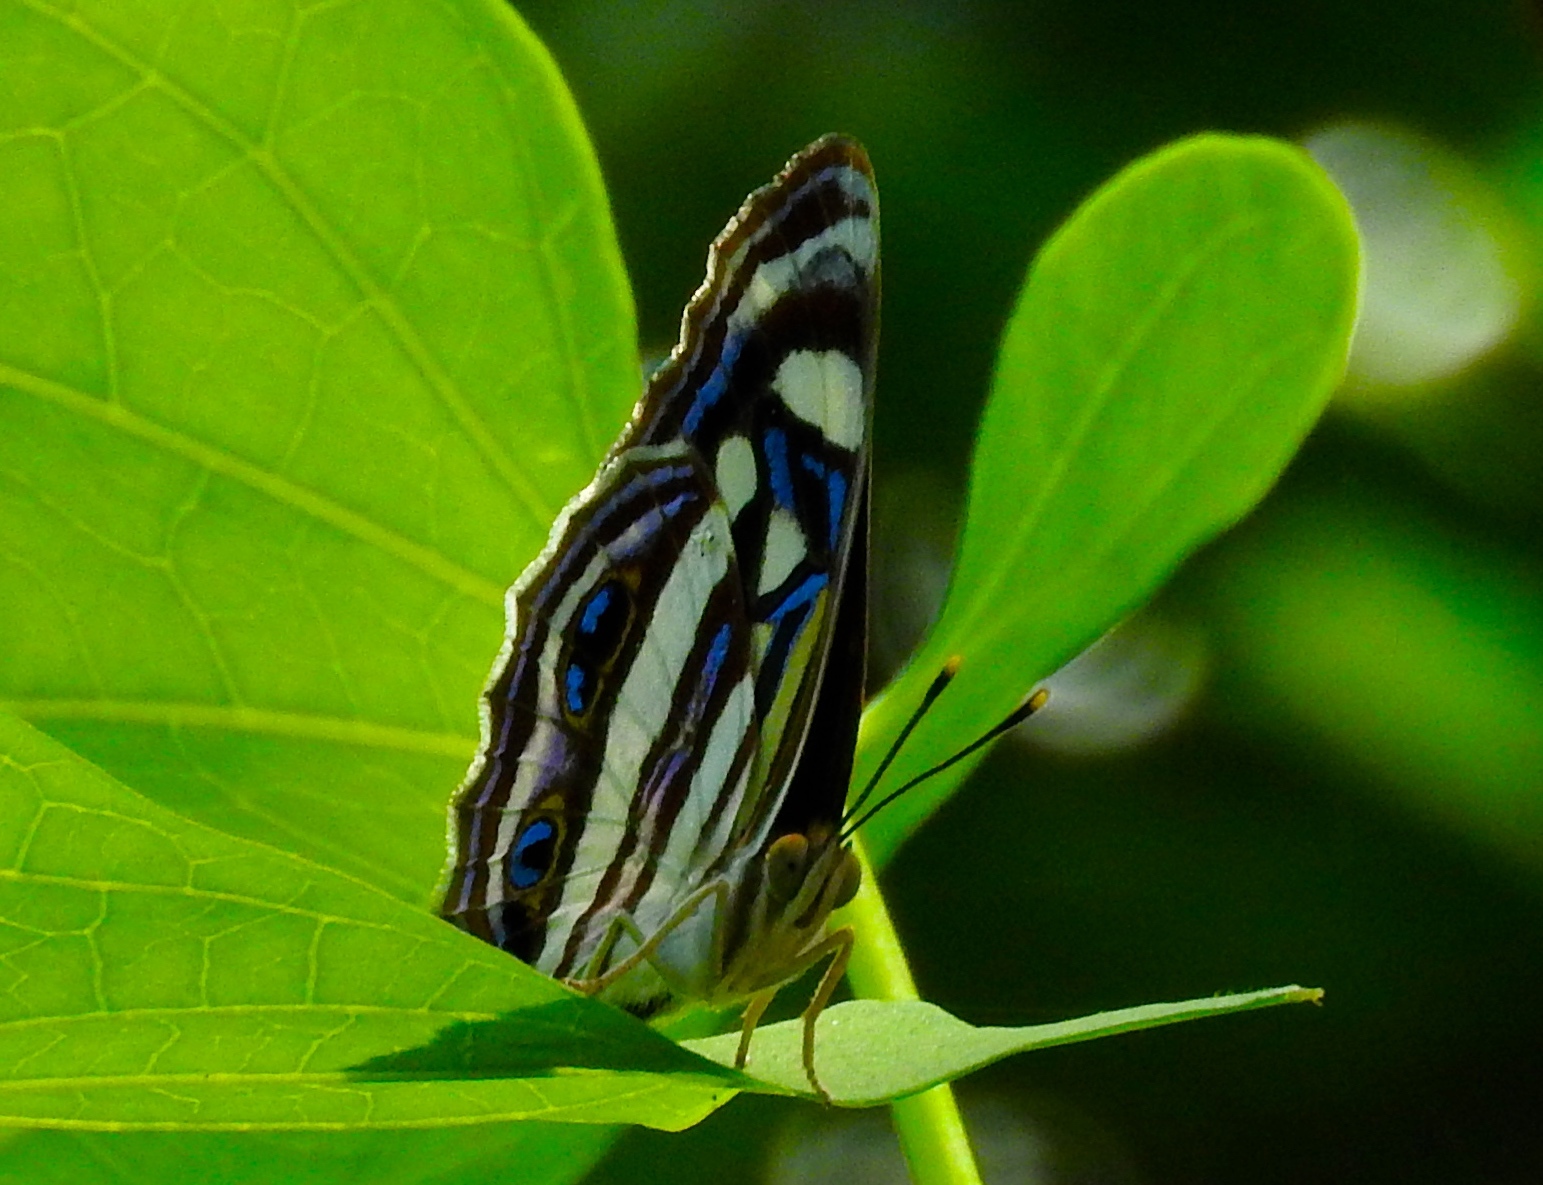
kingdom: Animalia
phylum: Arthropoda
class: Insecta
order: Lepidoptera
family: Nymphalidae
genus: Dynamine
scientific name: Dynamine mylitta
